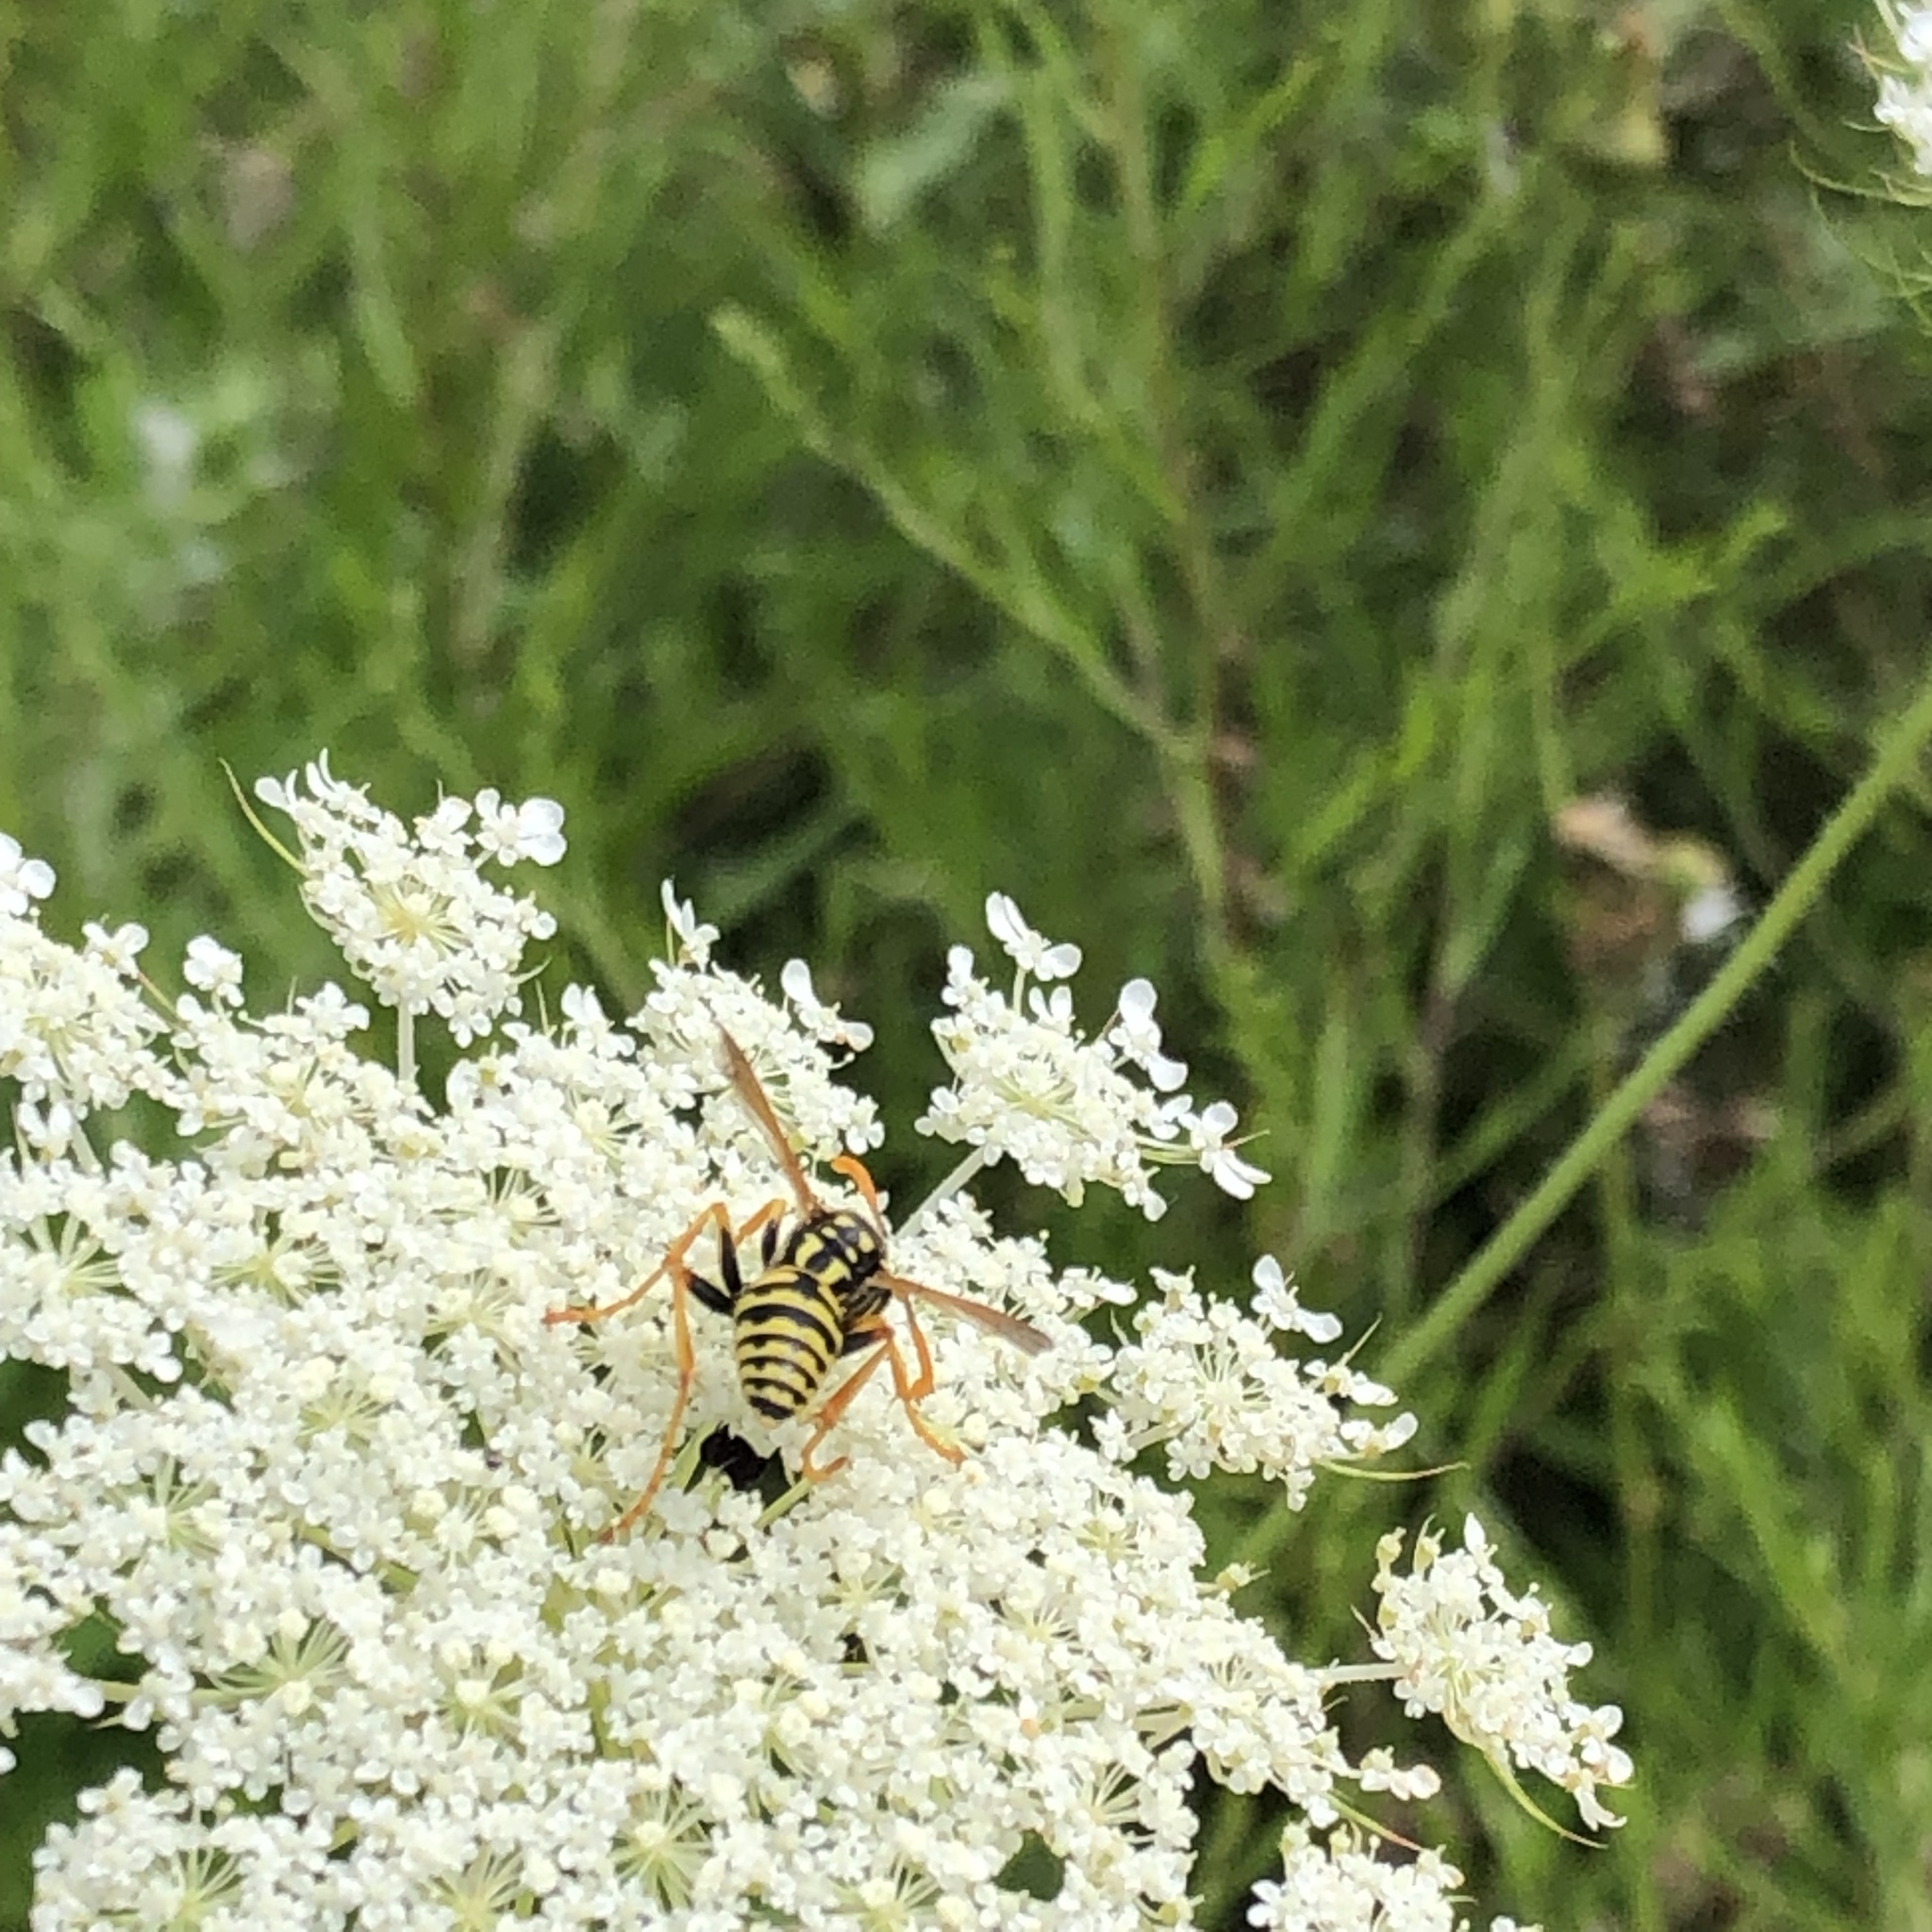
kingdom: Animalia
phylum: Arthropoda
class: Insecta
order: Hymenoptera
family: Eumenidae
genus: Polistes
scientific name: Polistes dominula
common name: Paper wasp
